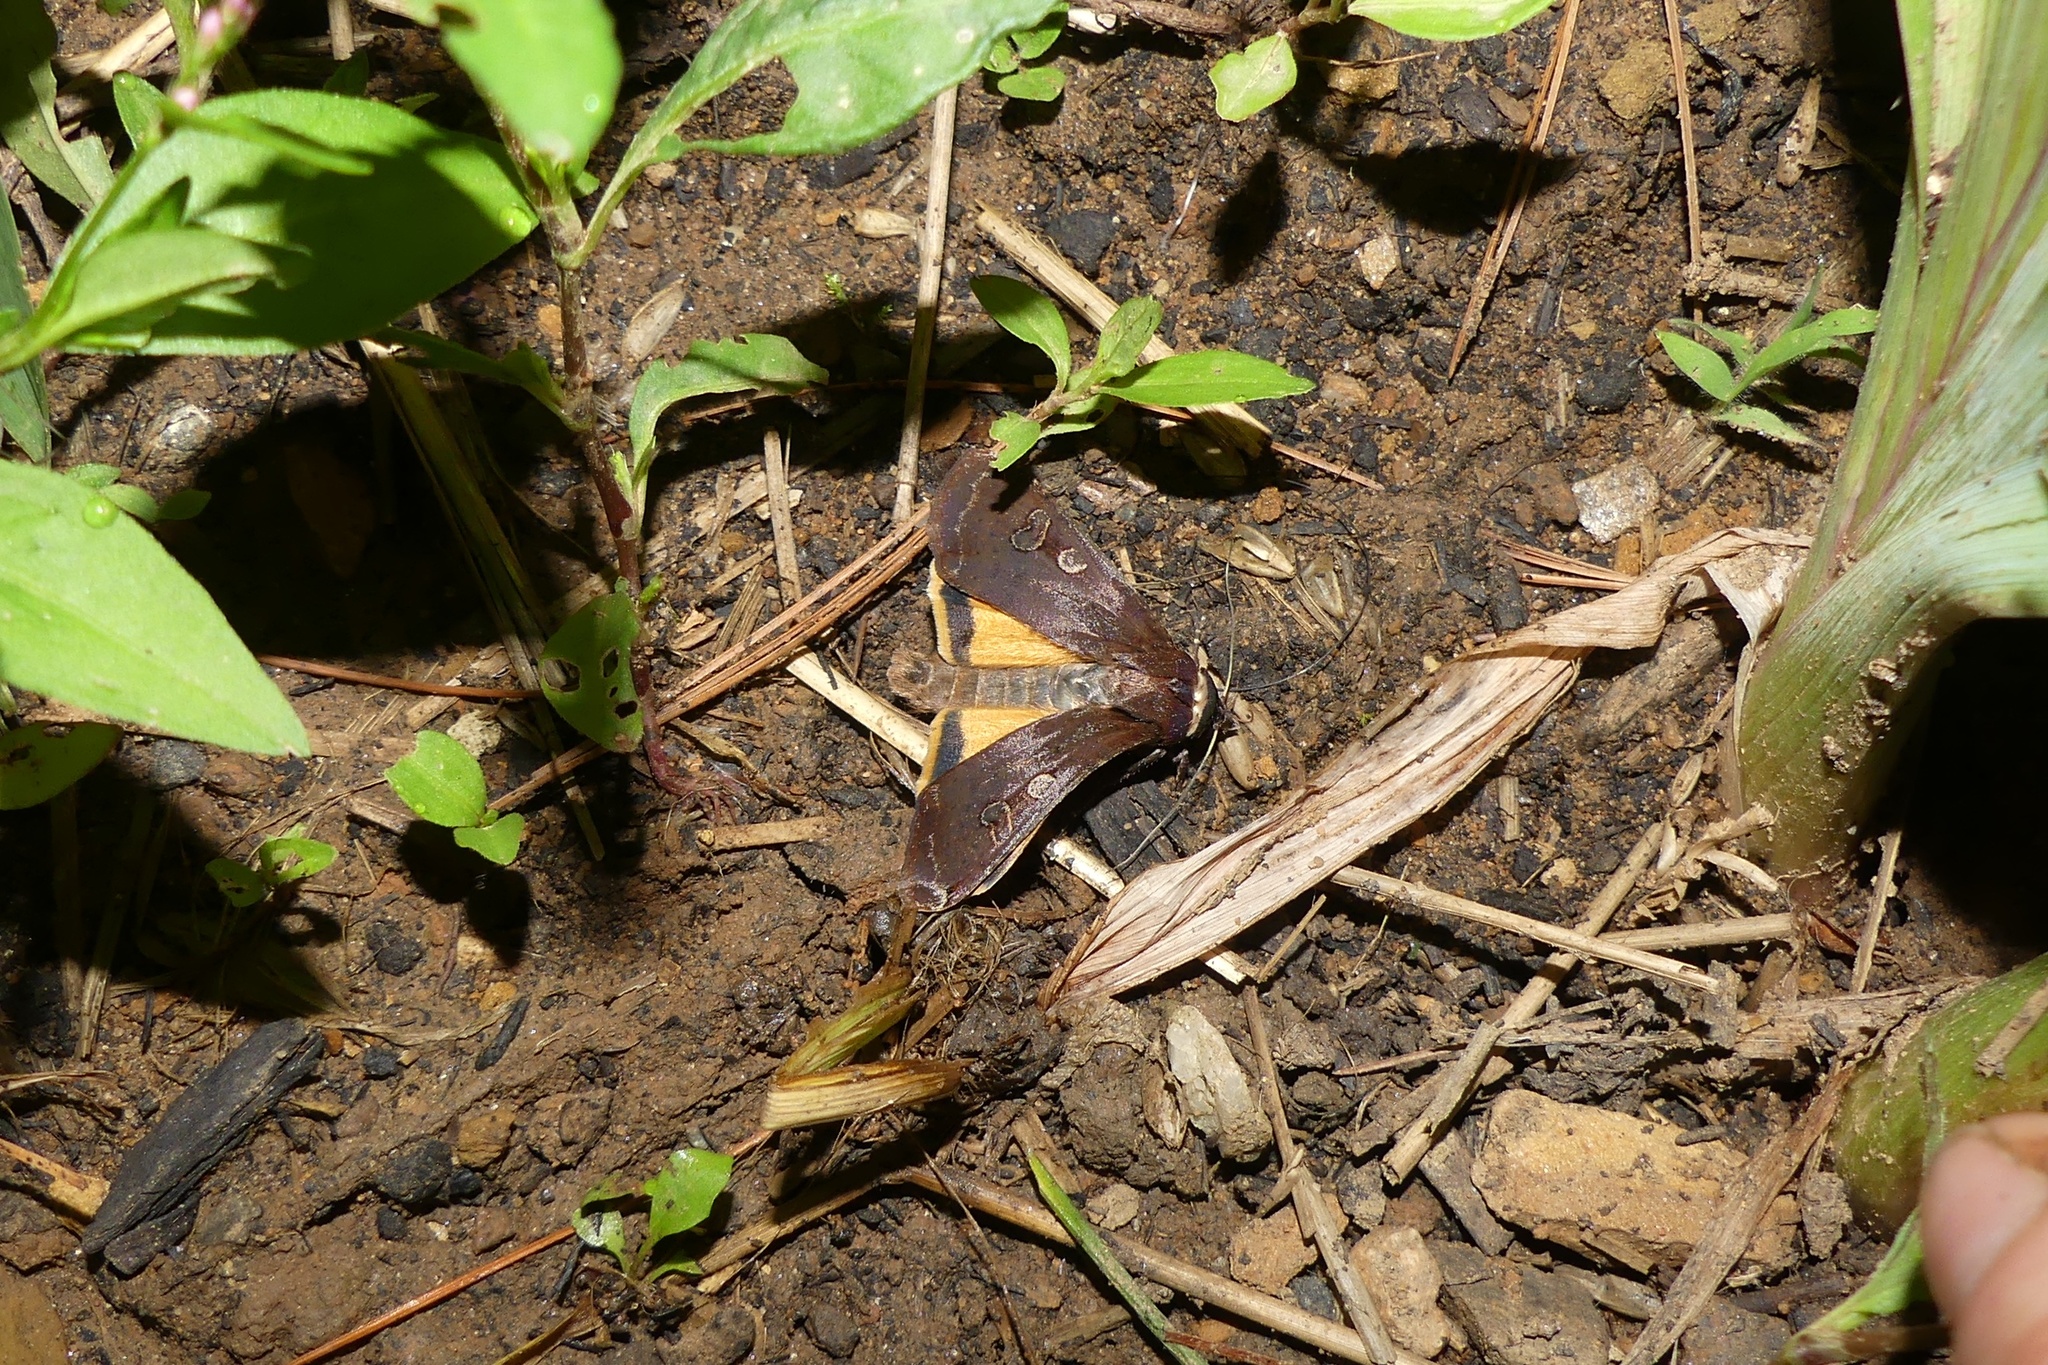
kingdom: Animalia
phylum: Arthropoda
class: Insecta
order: Lepidoptera
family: Noctuidae
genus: Noctua
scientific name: Noctua pronuba
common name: Large yellow underwing
